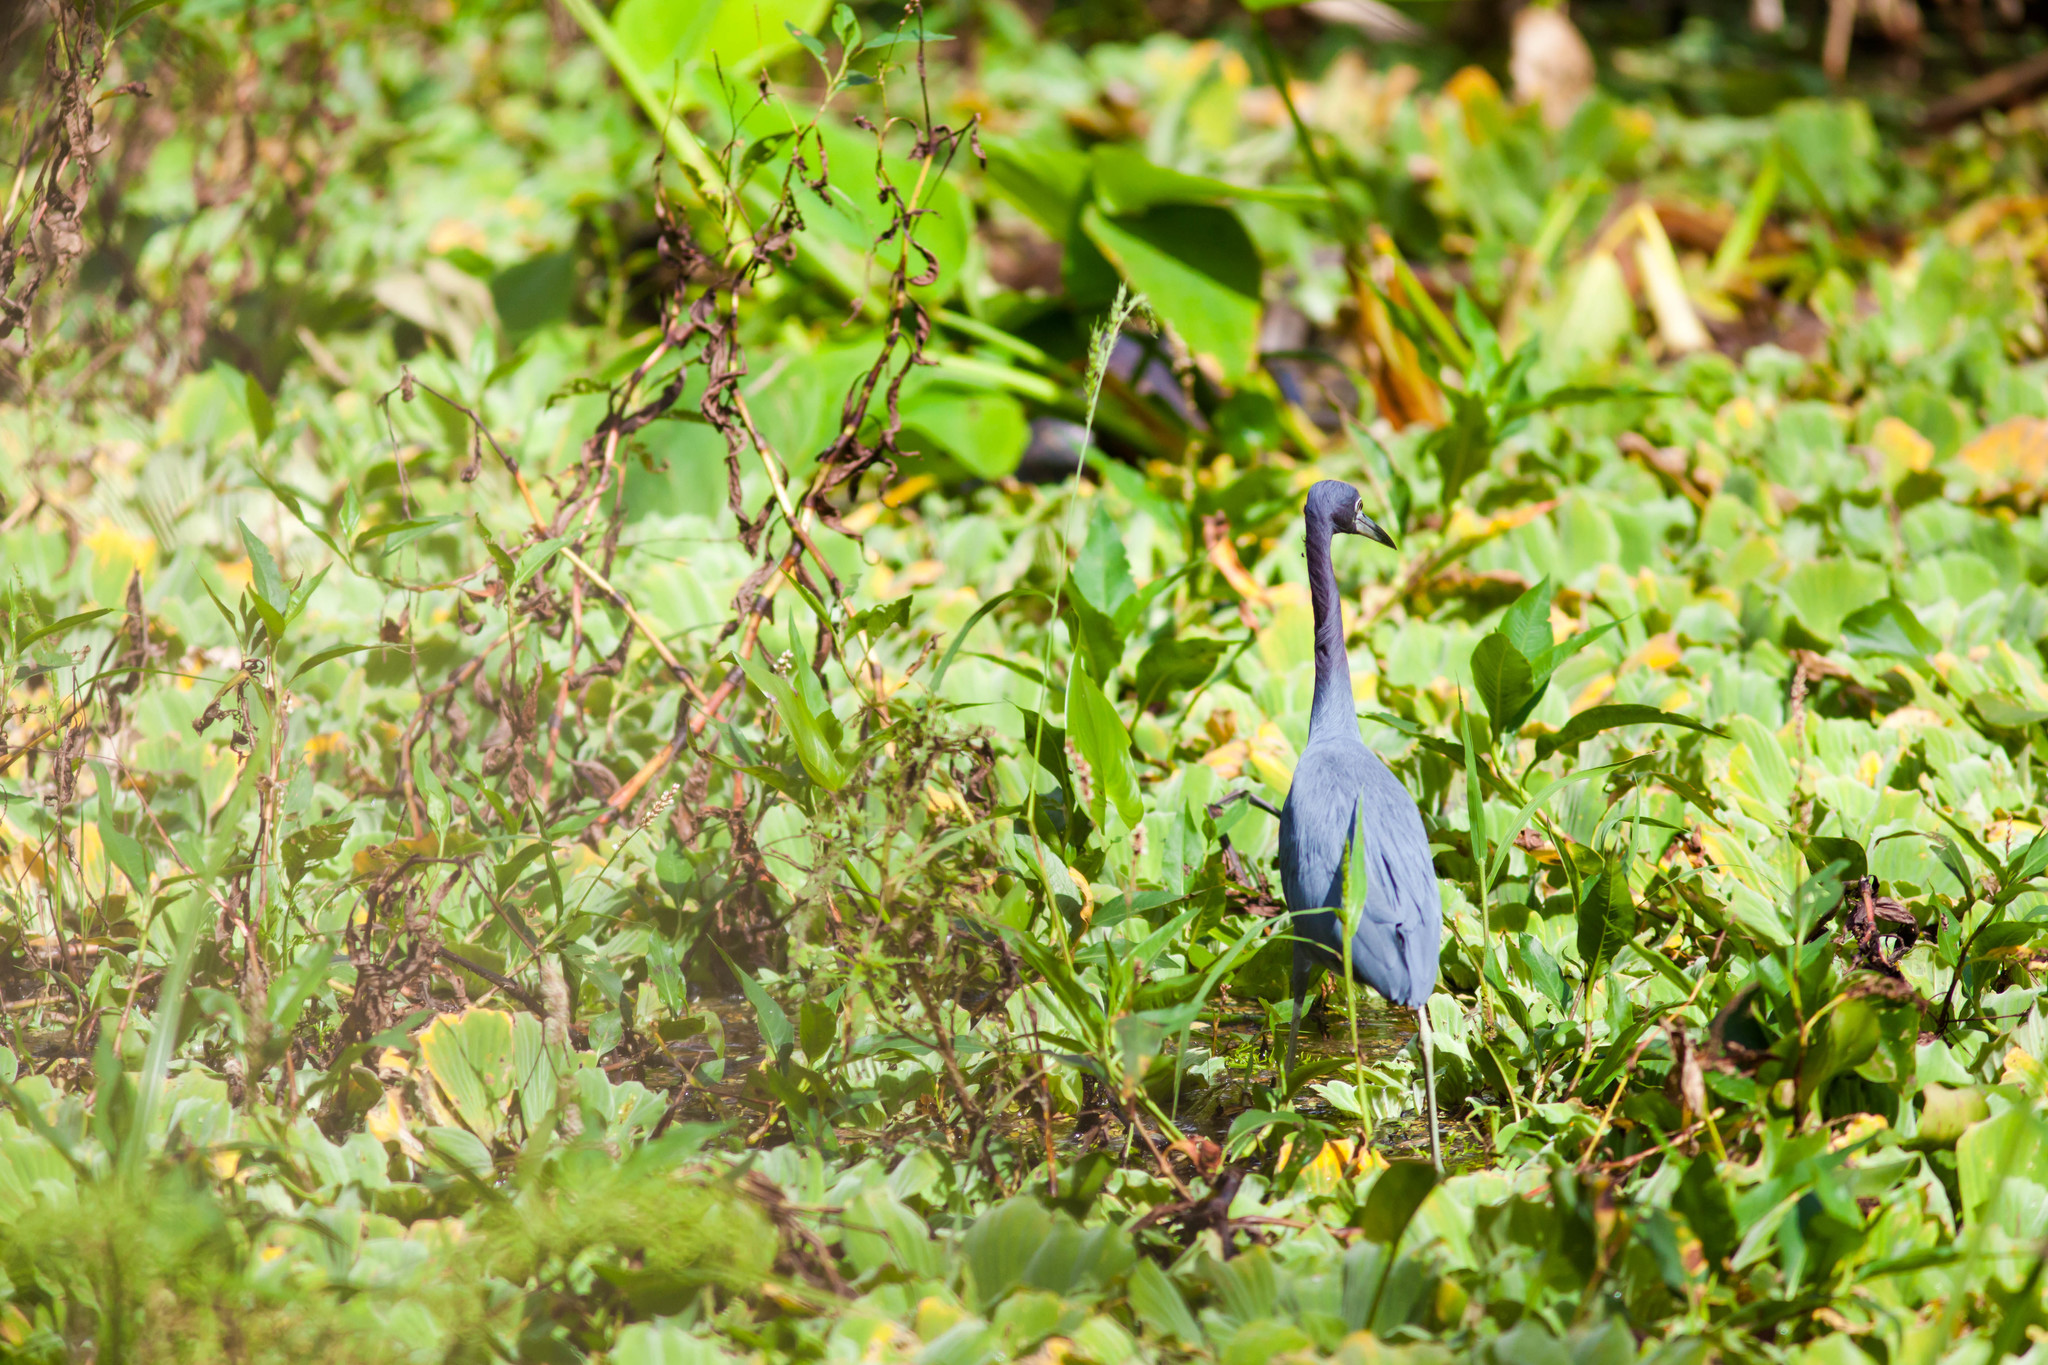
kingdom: Animalia
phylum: Chordata
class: Aves
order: Pelecaniformes
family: Ardeidae
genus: Egretta
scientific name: Egretta caerulea
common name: Little blue heron
